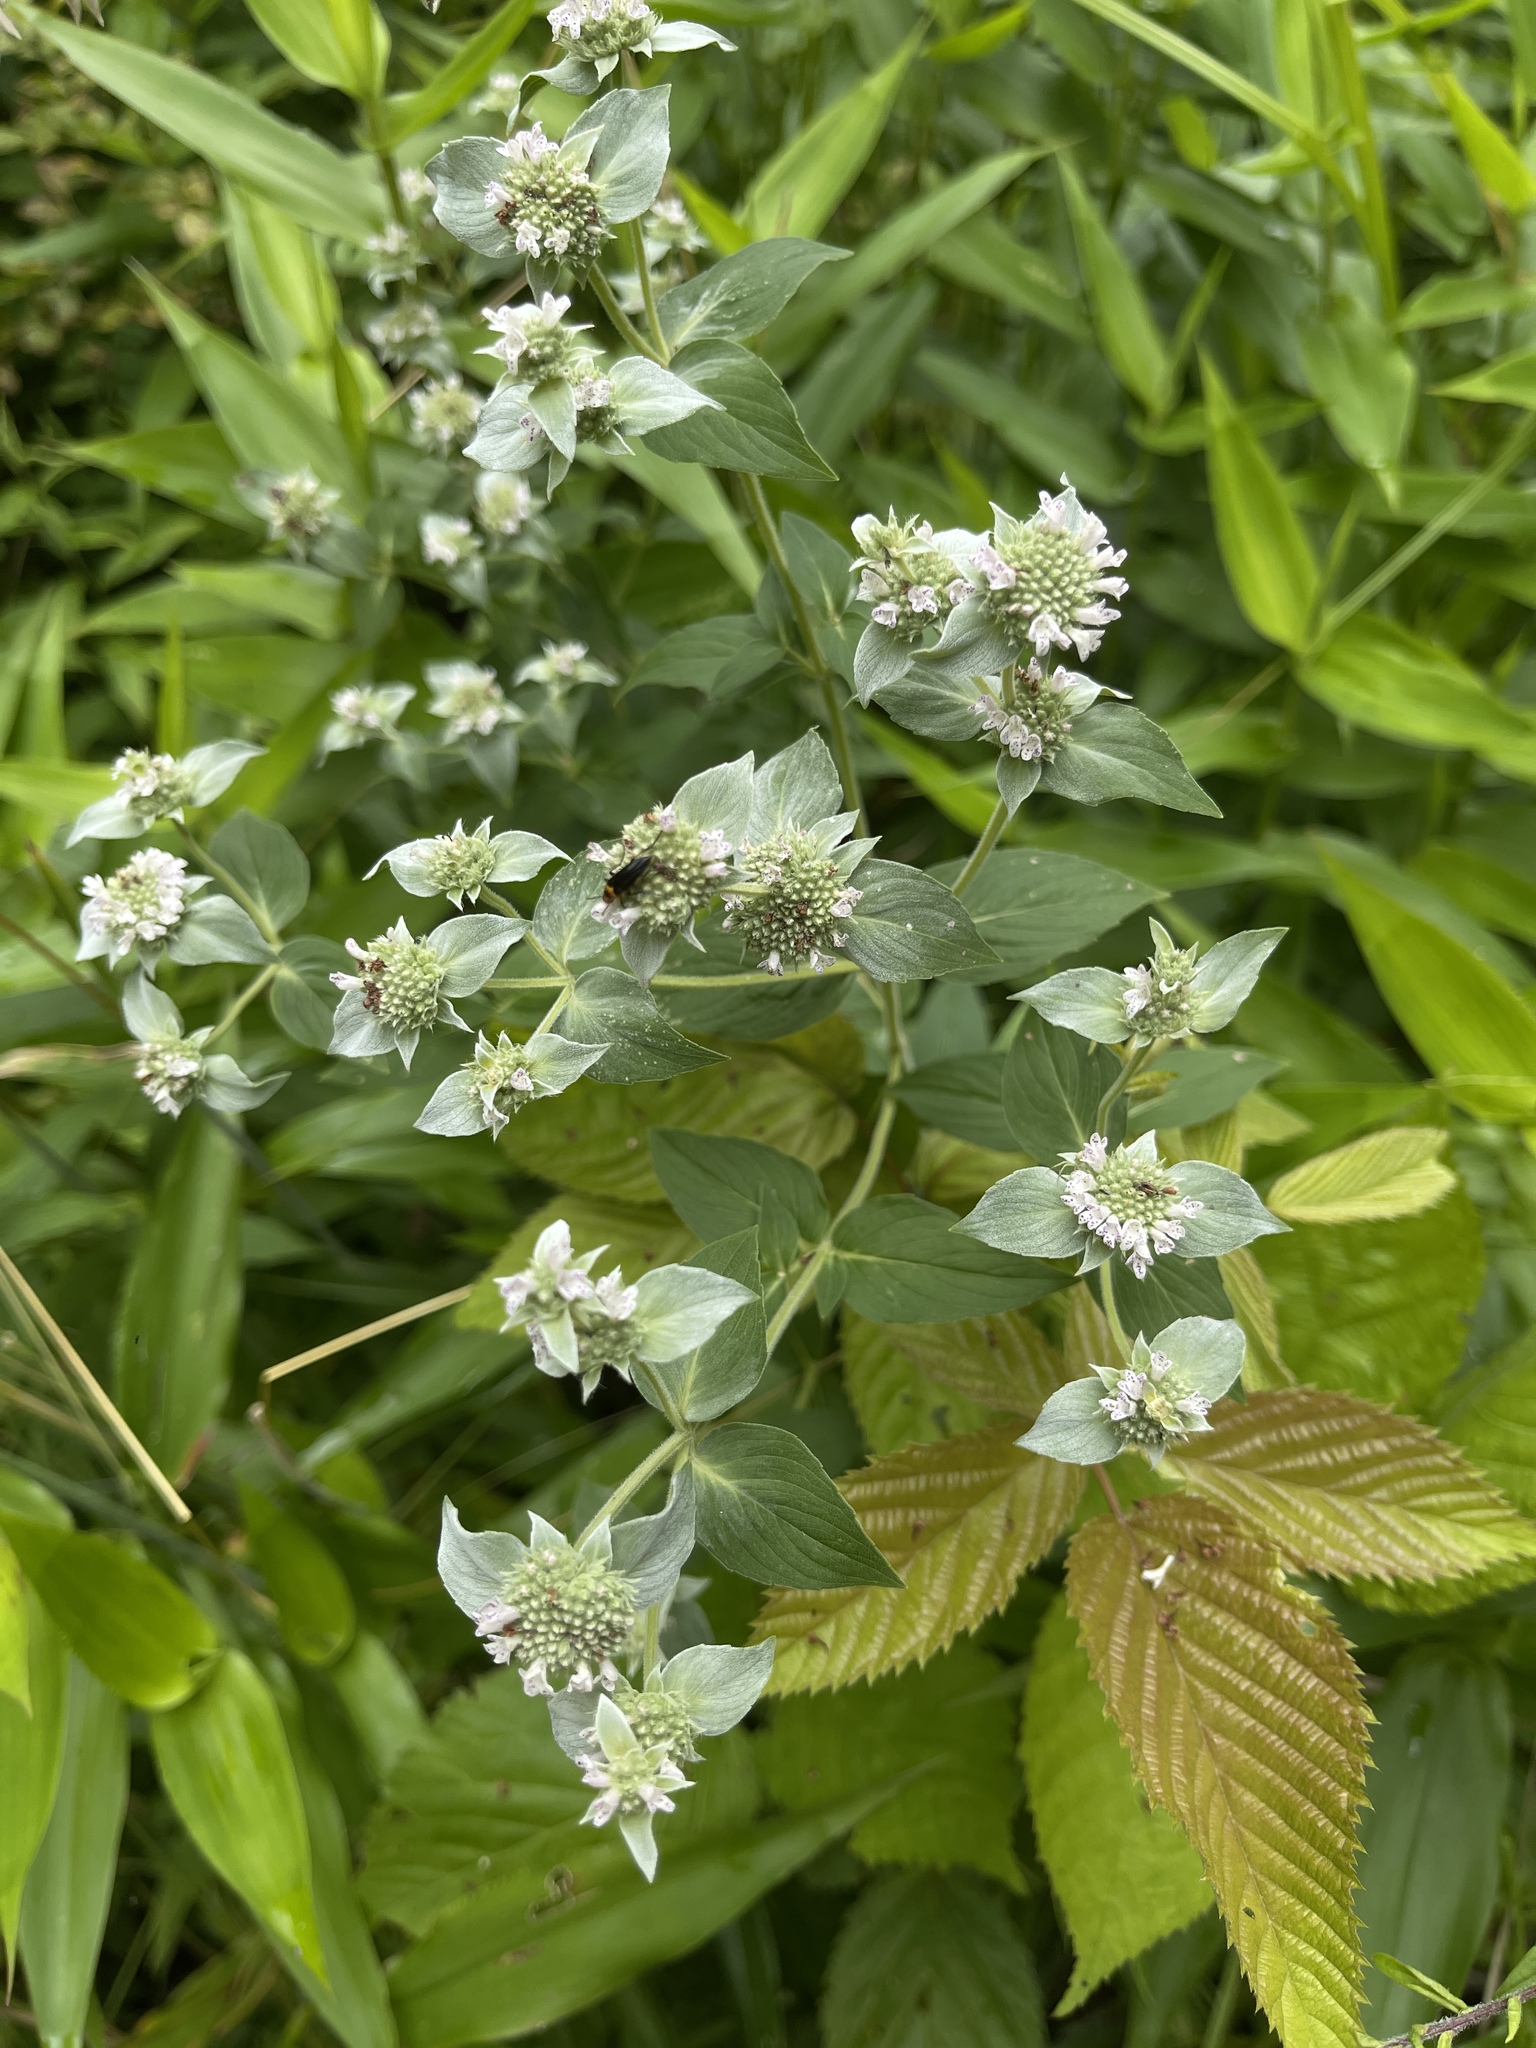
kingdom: Plantae
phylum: Tracheophyta
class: Magnoliopsida
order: Lamiales
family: Lamiaceae
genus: Pycnanthemum
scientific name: Pycnanthemum muticum
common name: Blunt mountain-mint
